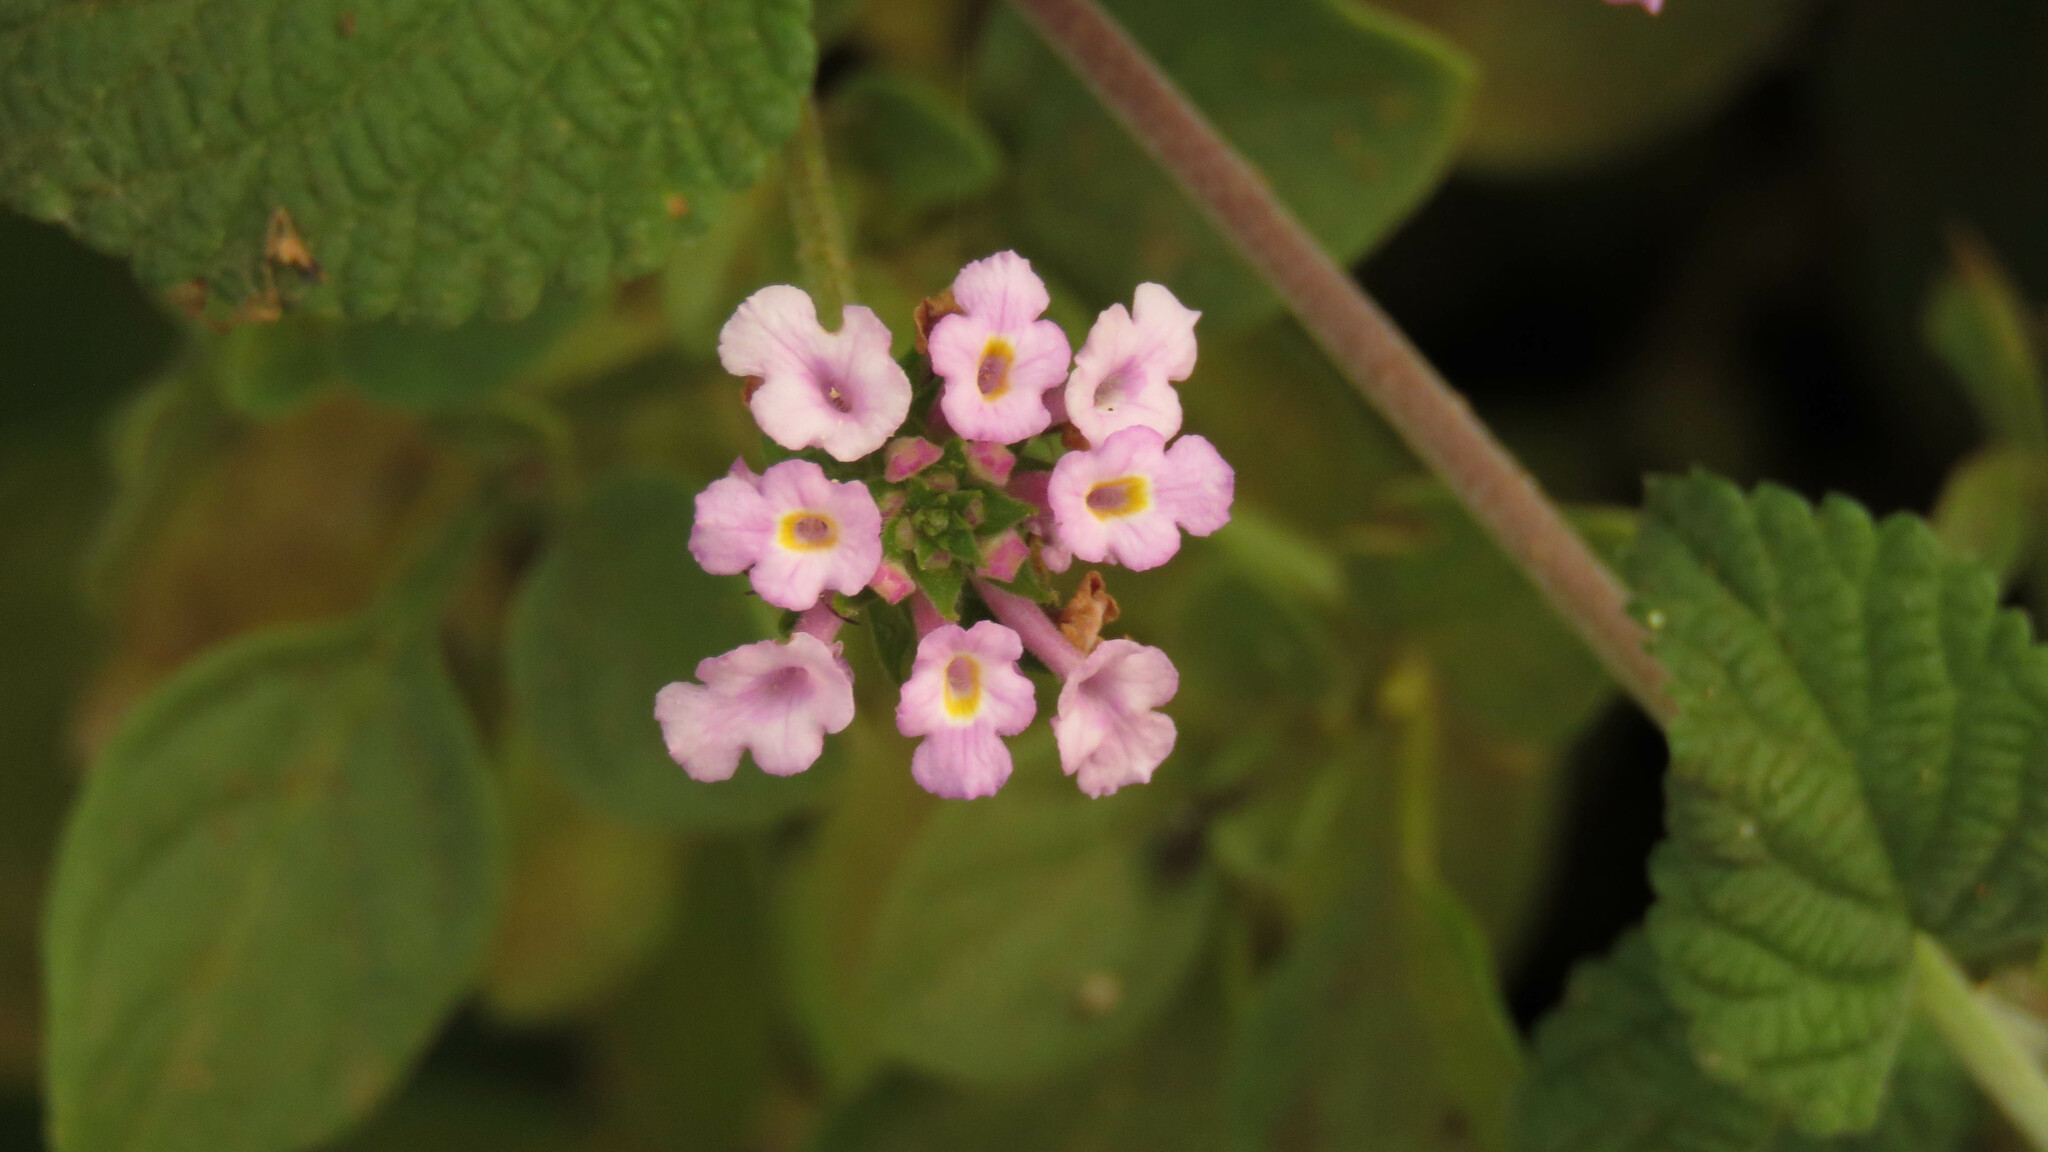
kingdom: Plantae
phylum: Tracheophyta
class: Magnoliopsida
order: Lamiales
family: Verbenaceae
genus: Lantana
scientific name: Lantana megapotamica
